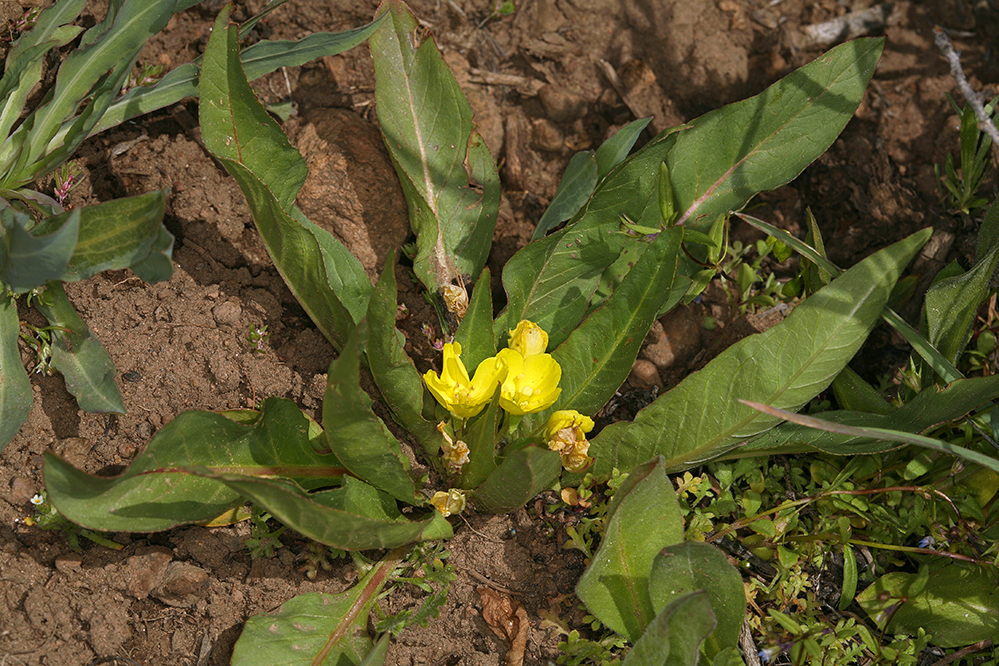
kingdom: Plantae
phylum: Tracheophyta
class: Magnoliopsida
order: Myrtales
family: Onagraceae
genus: Taraxia
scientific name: Taraxia subacaulis
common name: Diffuseflower evening primrose
